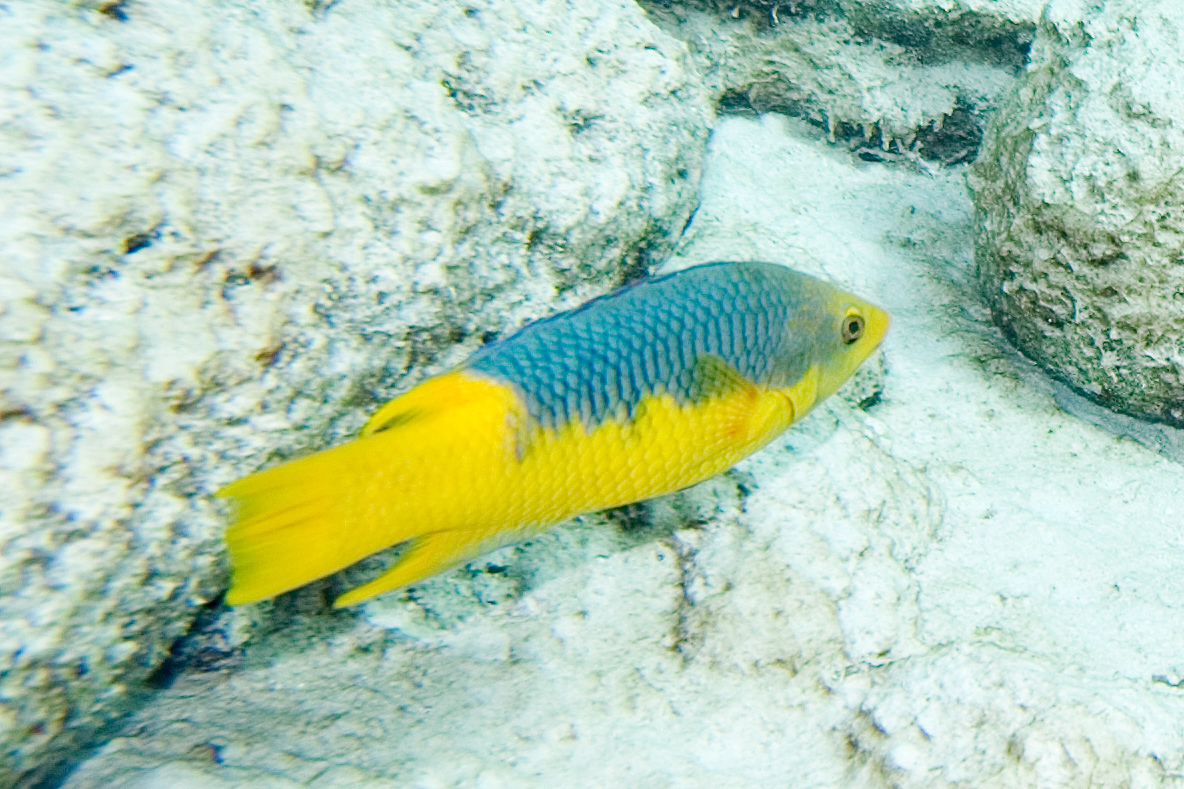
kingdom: Animalia
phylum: Chordata
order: Perciformes
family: Labridae
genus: Bodianus
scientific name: Bodianus rufus
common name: Spanish hogfish
